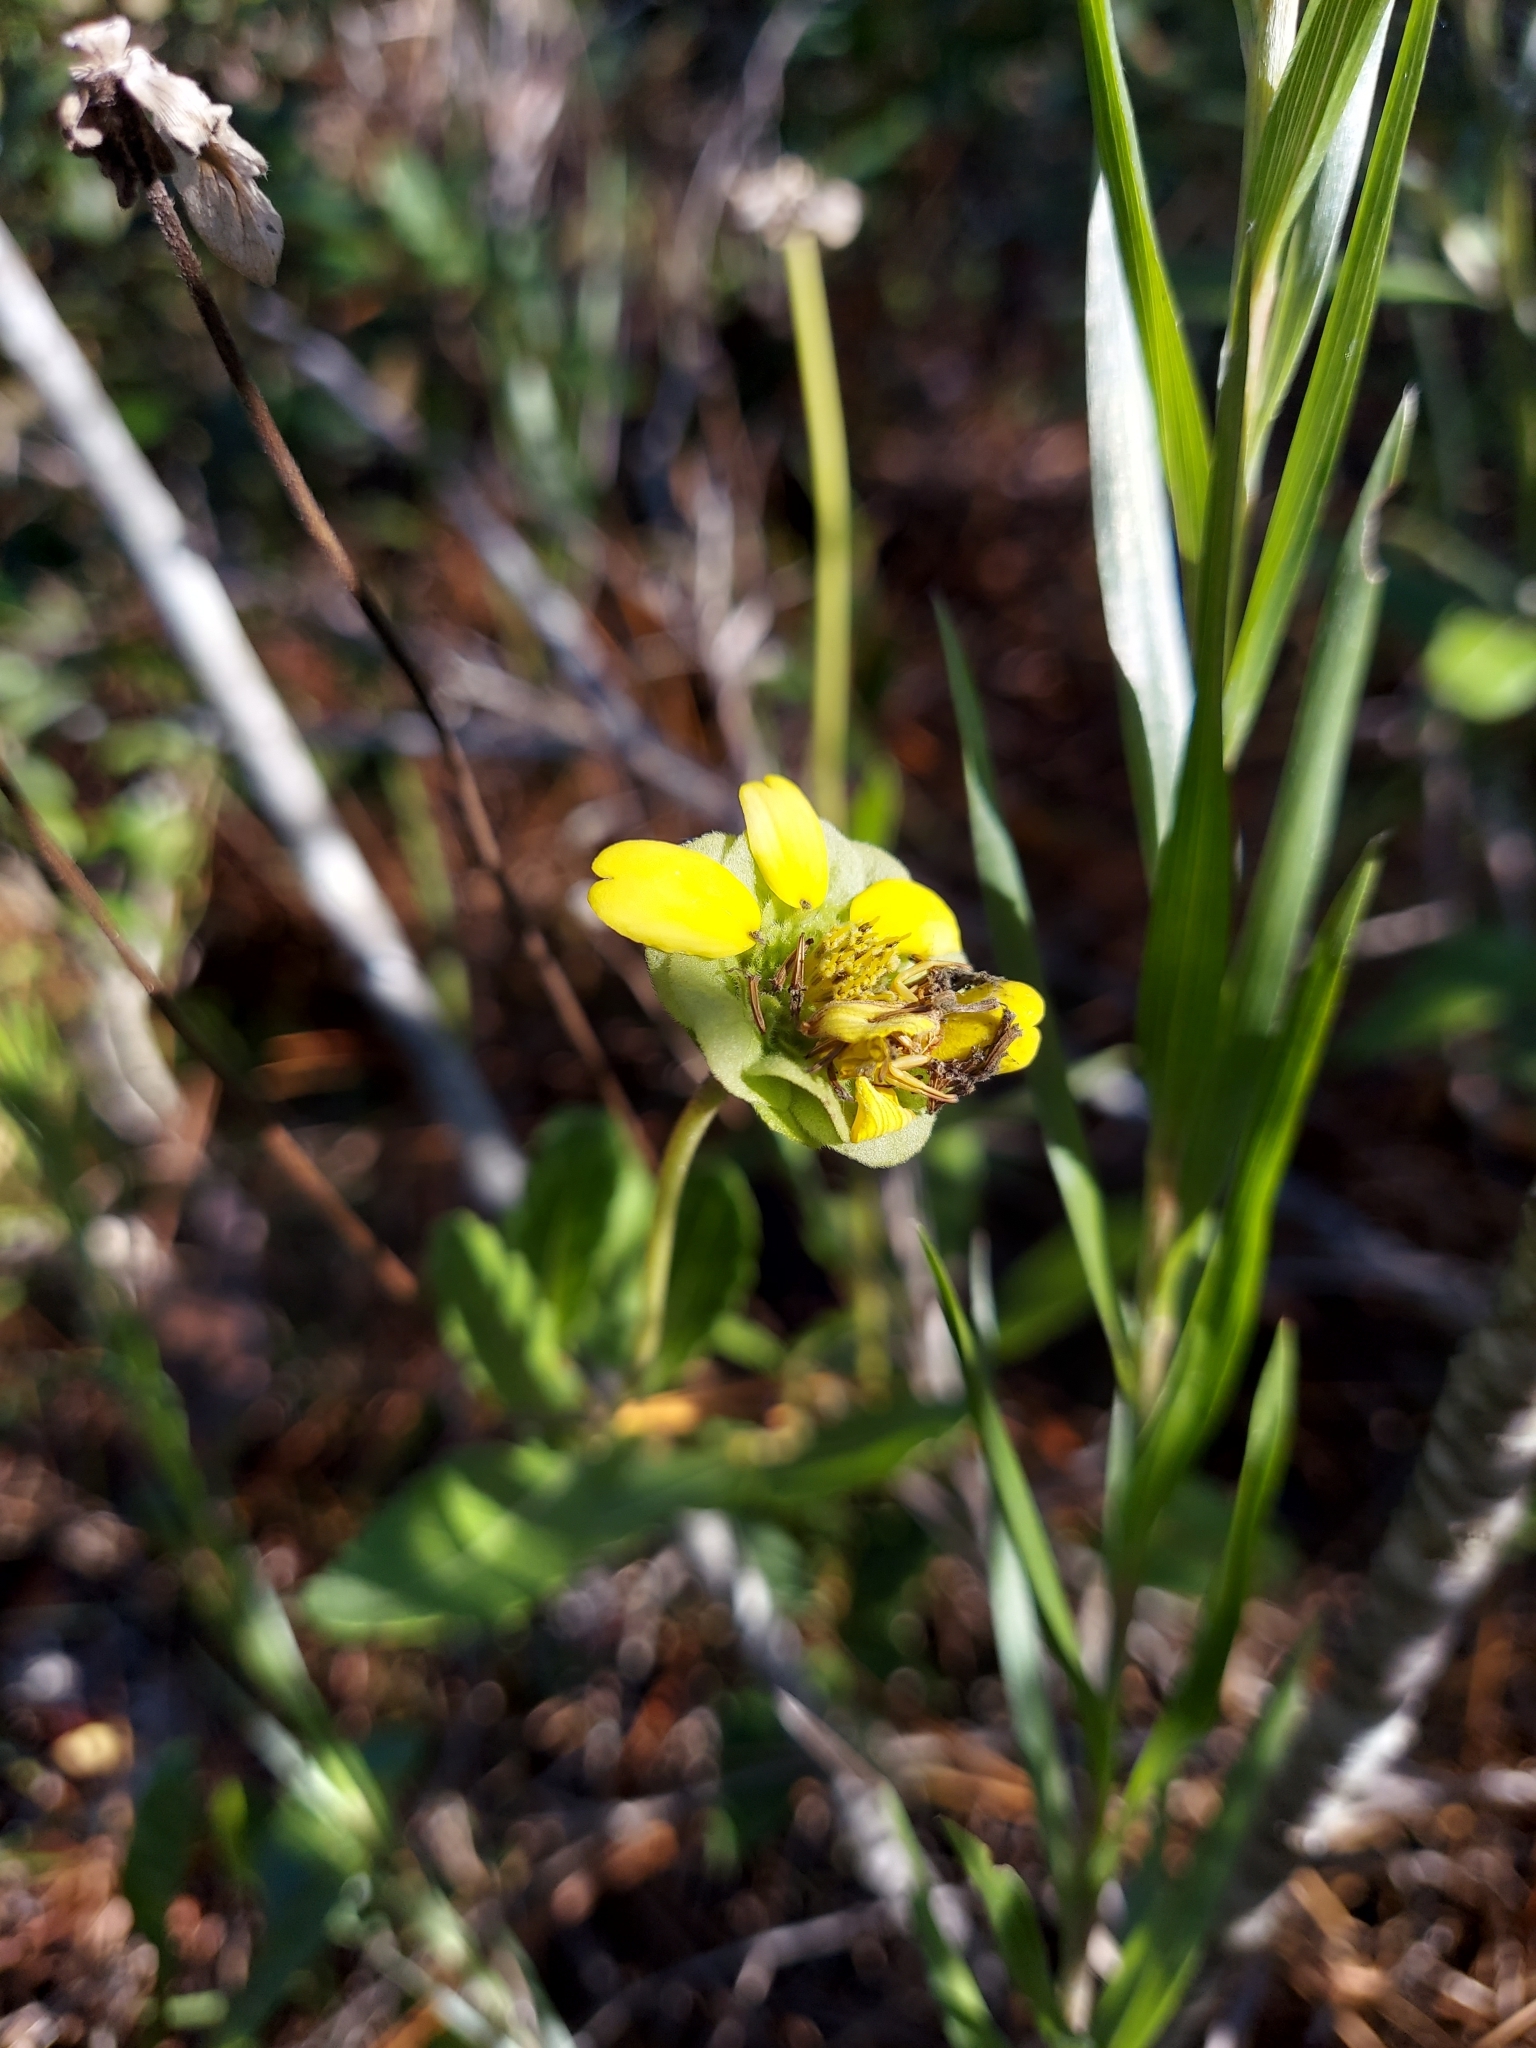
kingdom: Plantae
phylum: Tracheophyta
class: Magnoliopsida
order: Asterales
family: Asteraceae
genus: Berlandiera
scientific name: Berlandiera subacaulis
